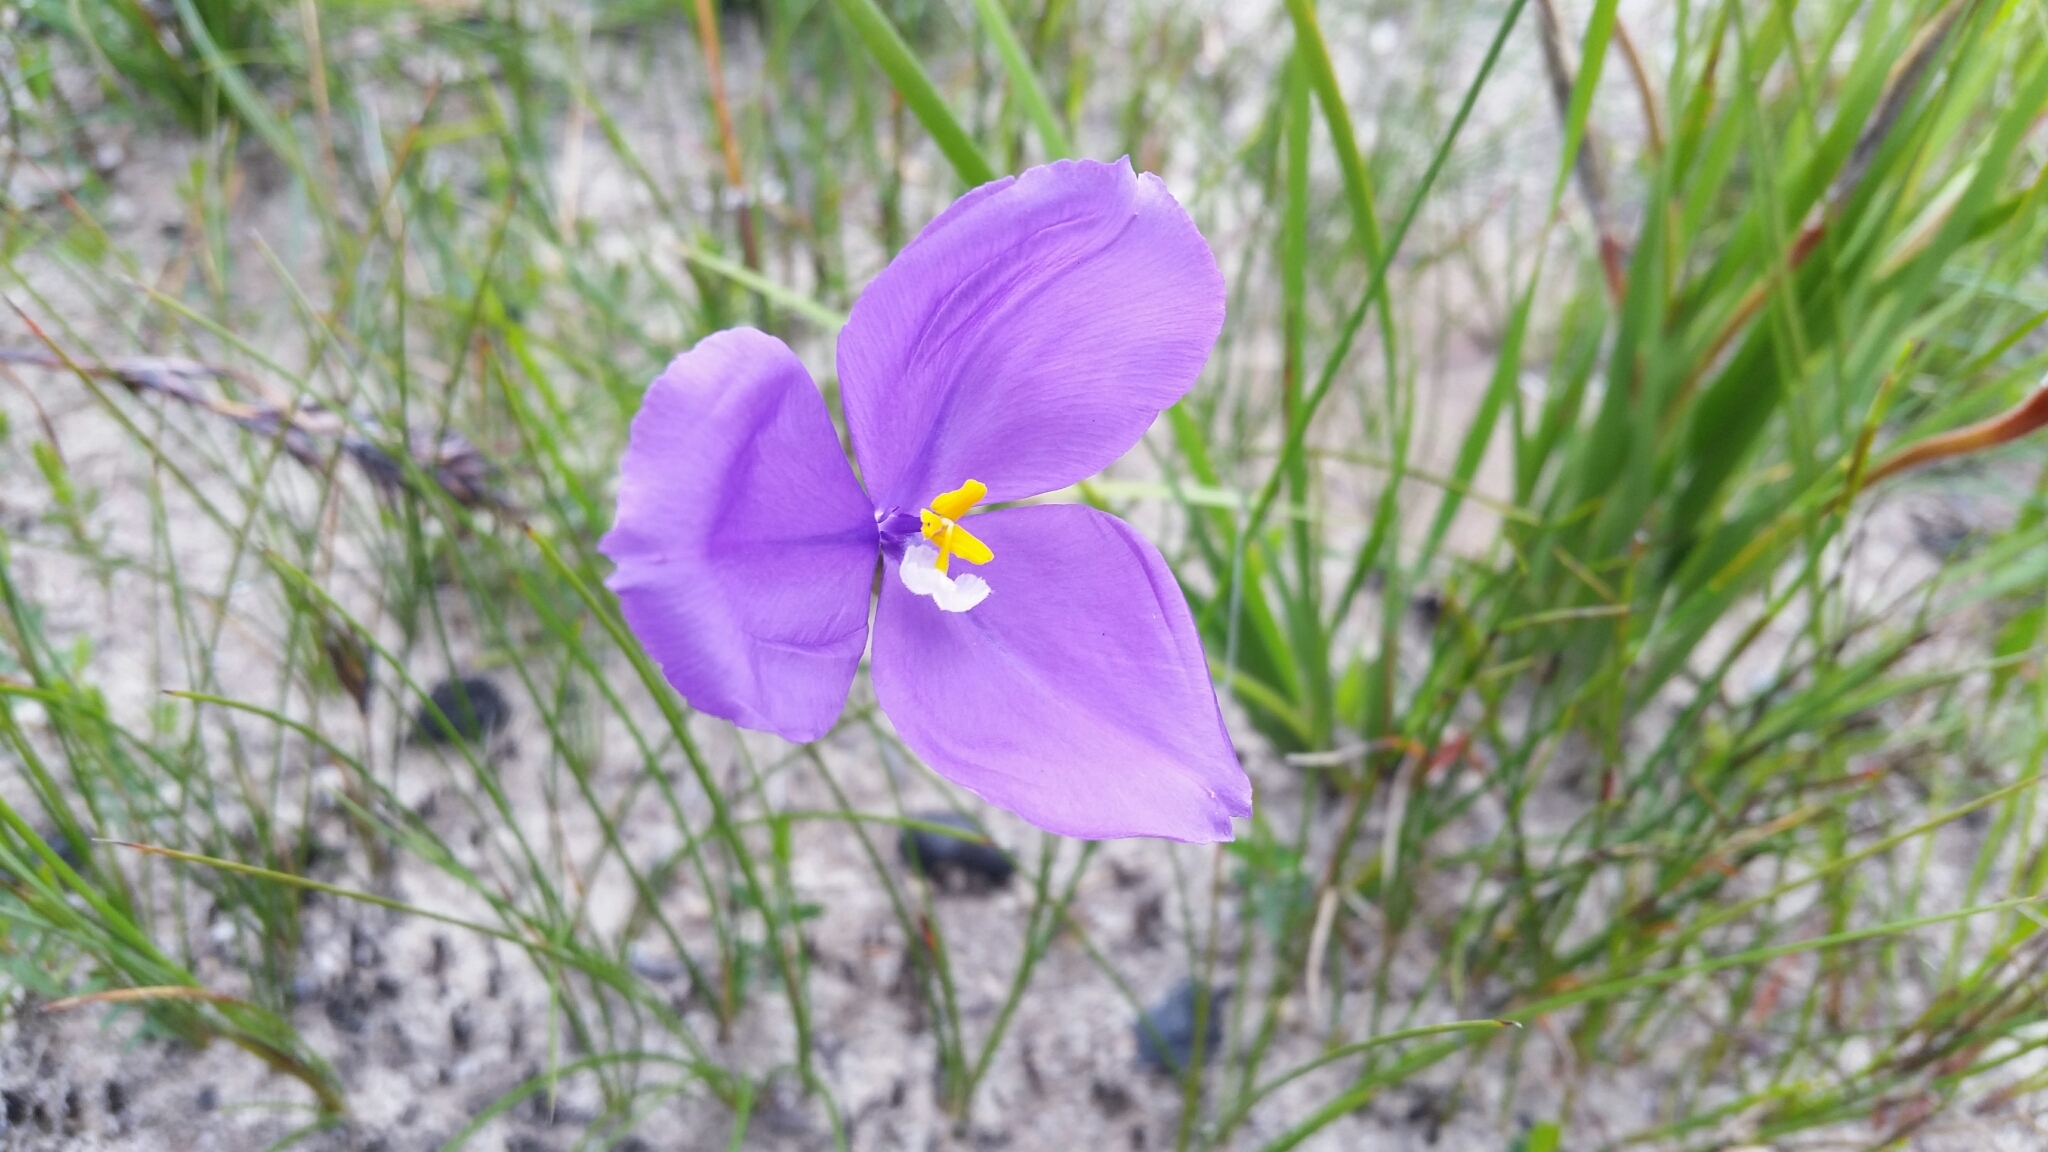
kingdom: Plantae
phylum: Tracheophyta
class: Liliopsida
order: Asparagales
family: Iridaceae
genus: Patersonia
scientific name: Patersonia sericea
